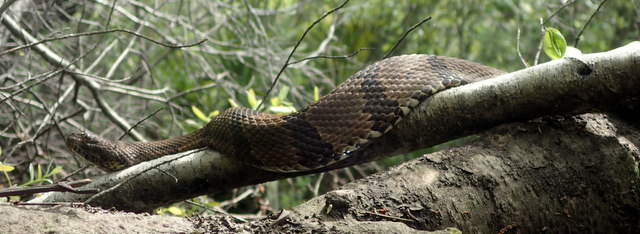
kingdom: Animalia
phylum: Chordata
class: Squamata
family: Colubridae
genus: Nerodia
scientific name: Nerodia taxispilota
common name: Brown water snake
